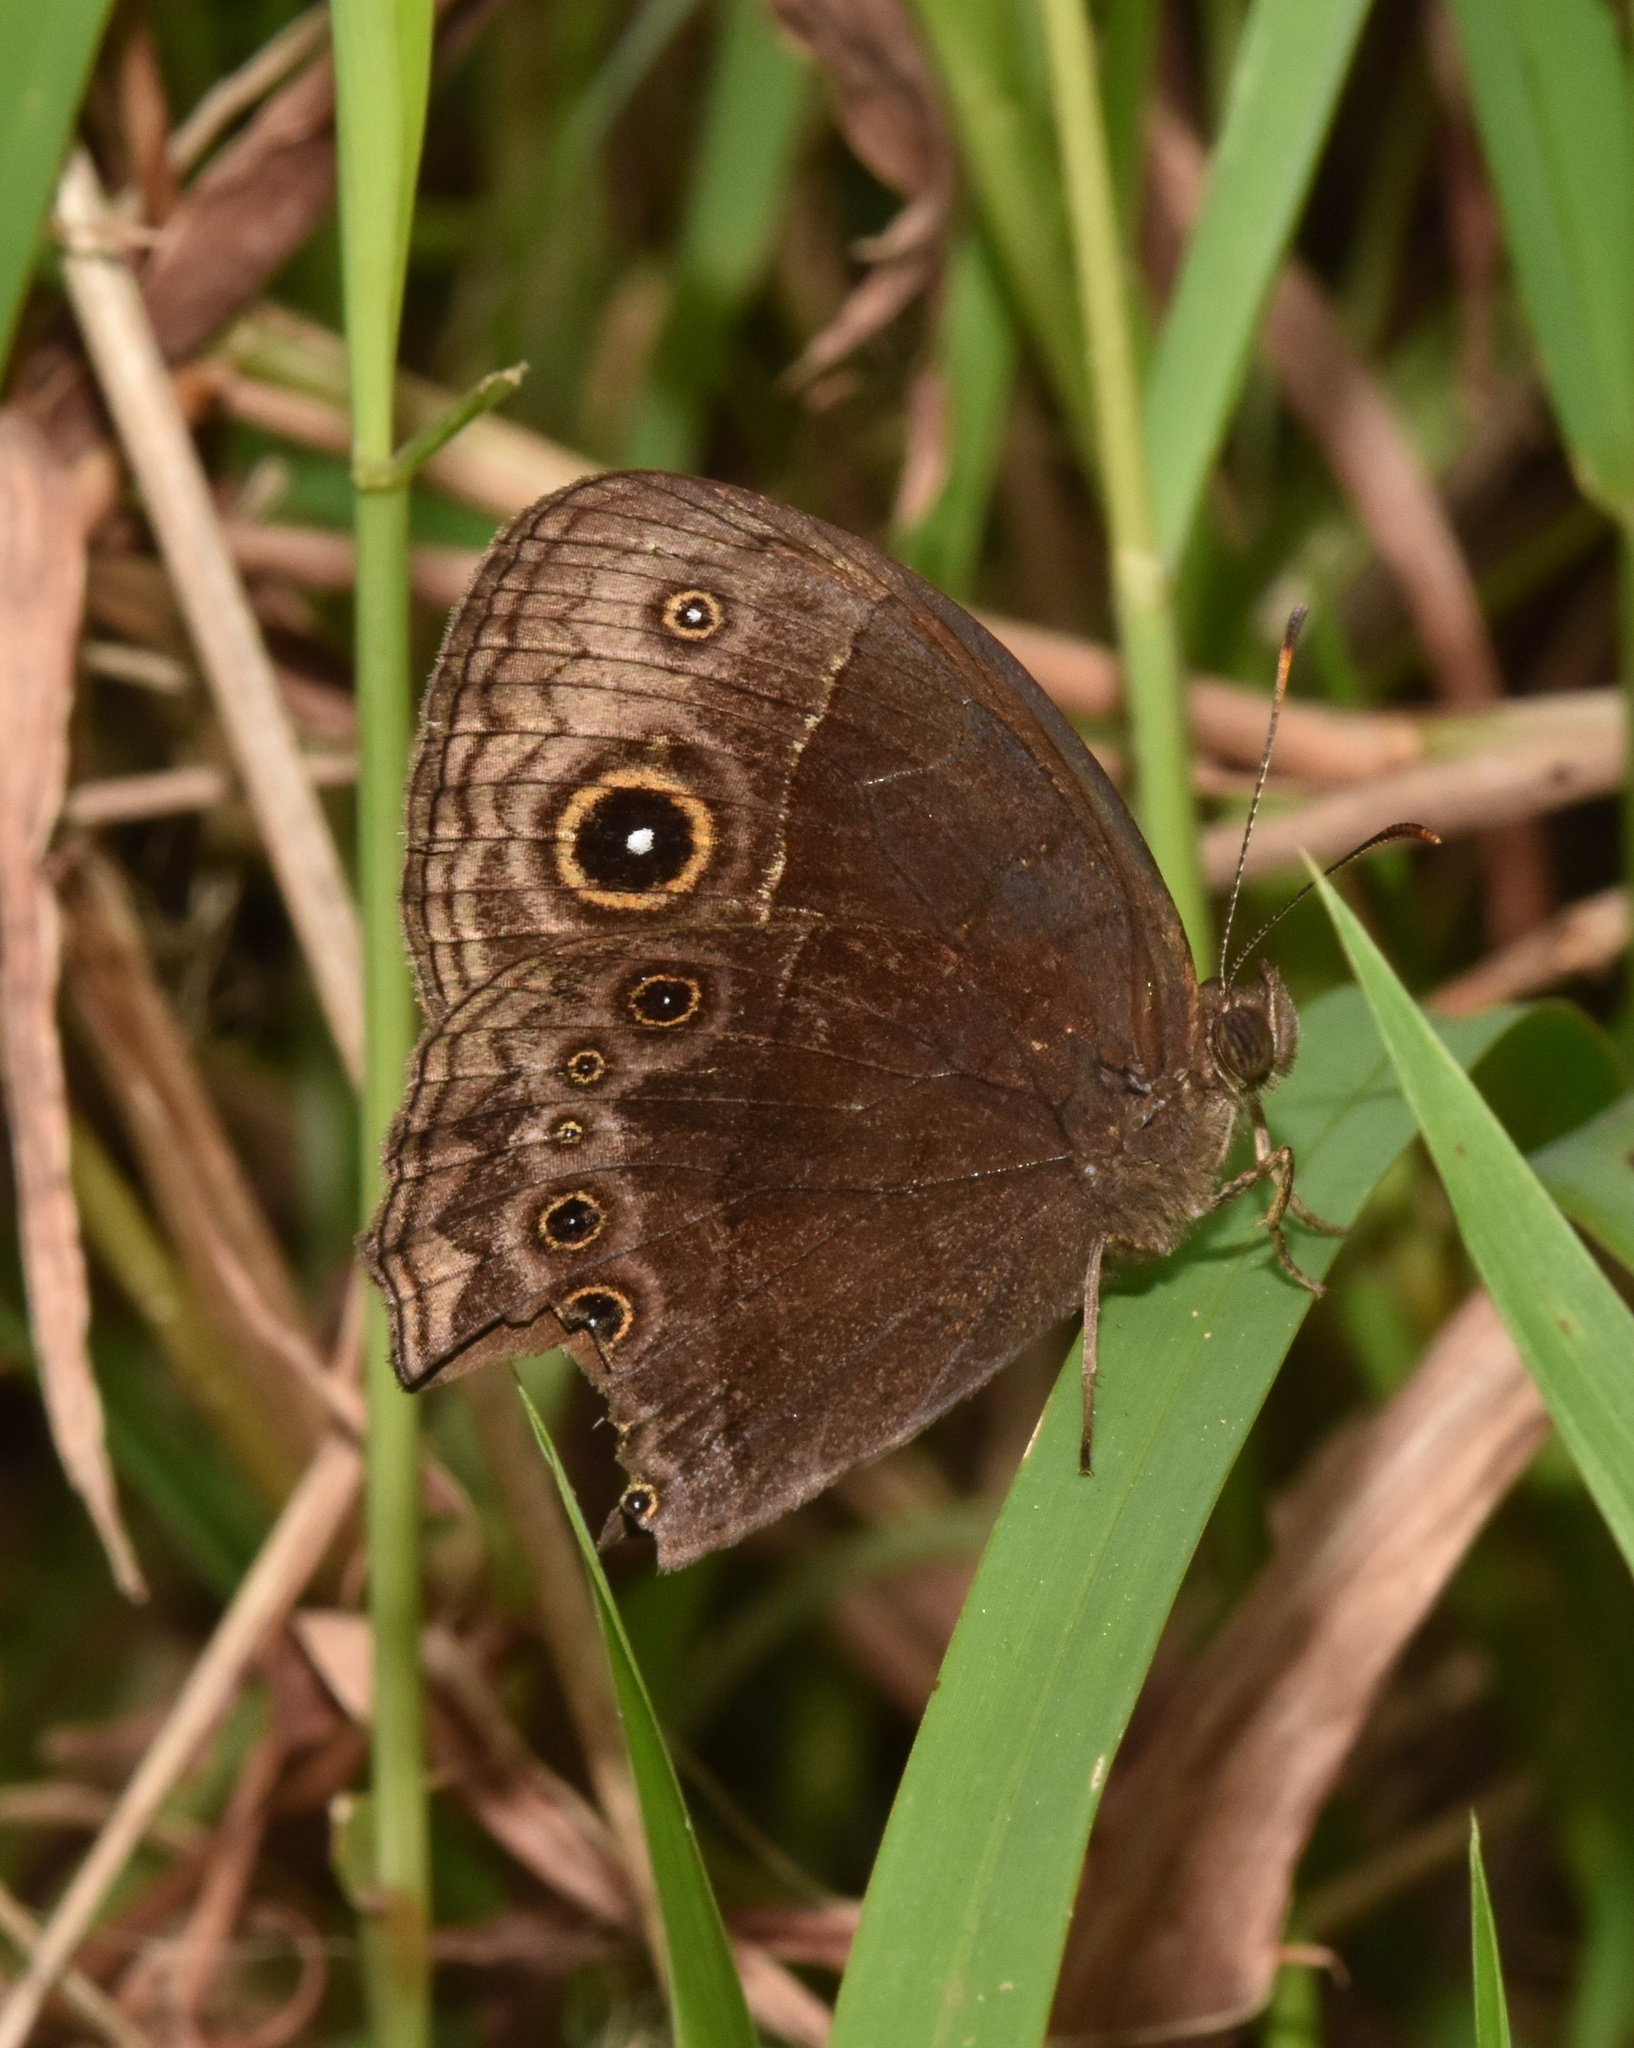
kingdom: Animalia
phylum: Arthropoda
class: Insecta
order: Lepidoptera
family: Nymphalidae
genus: Mycalesis
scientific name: Mycalesis rhacotis
